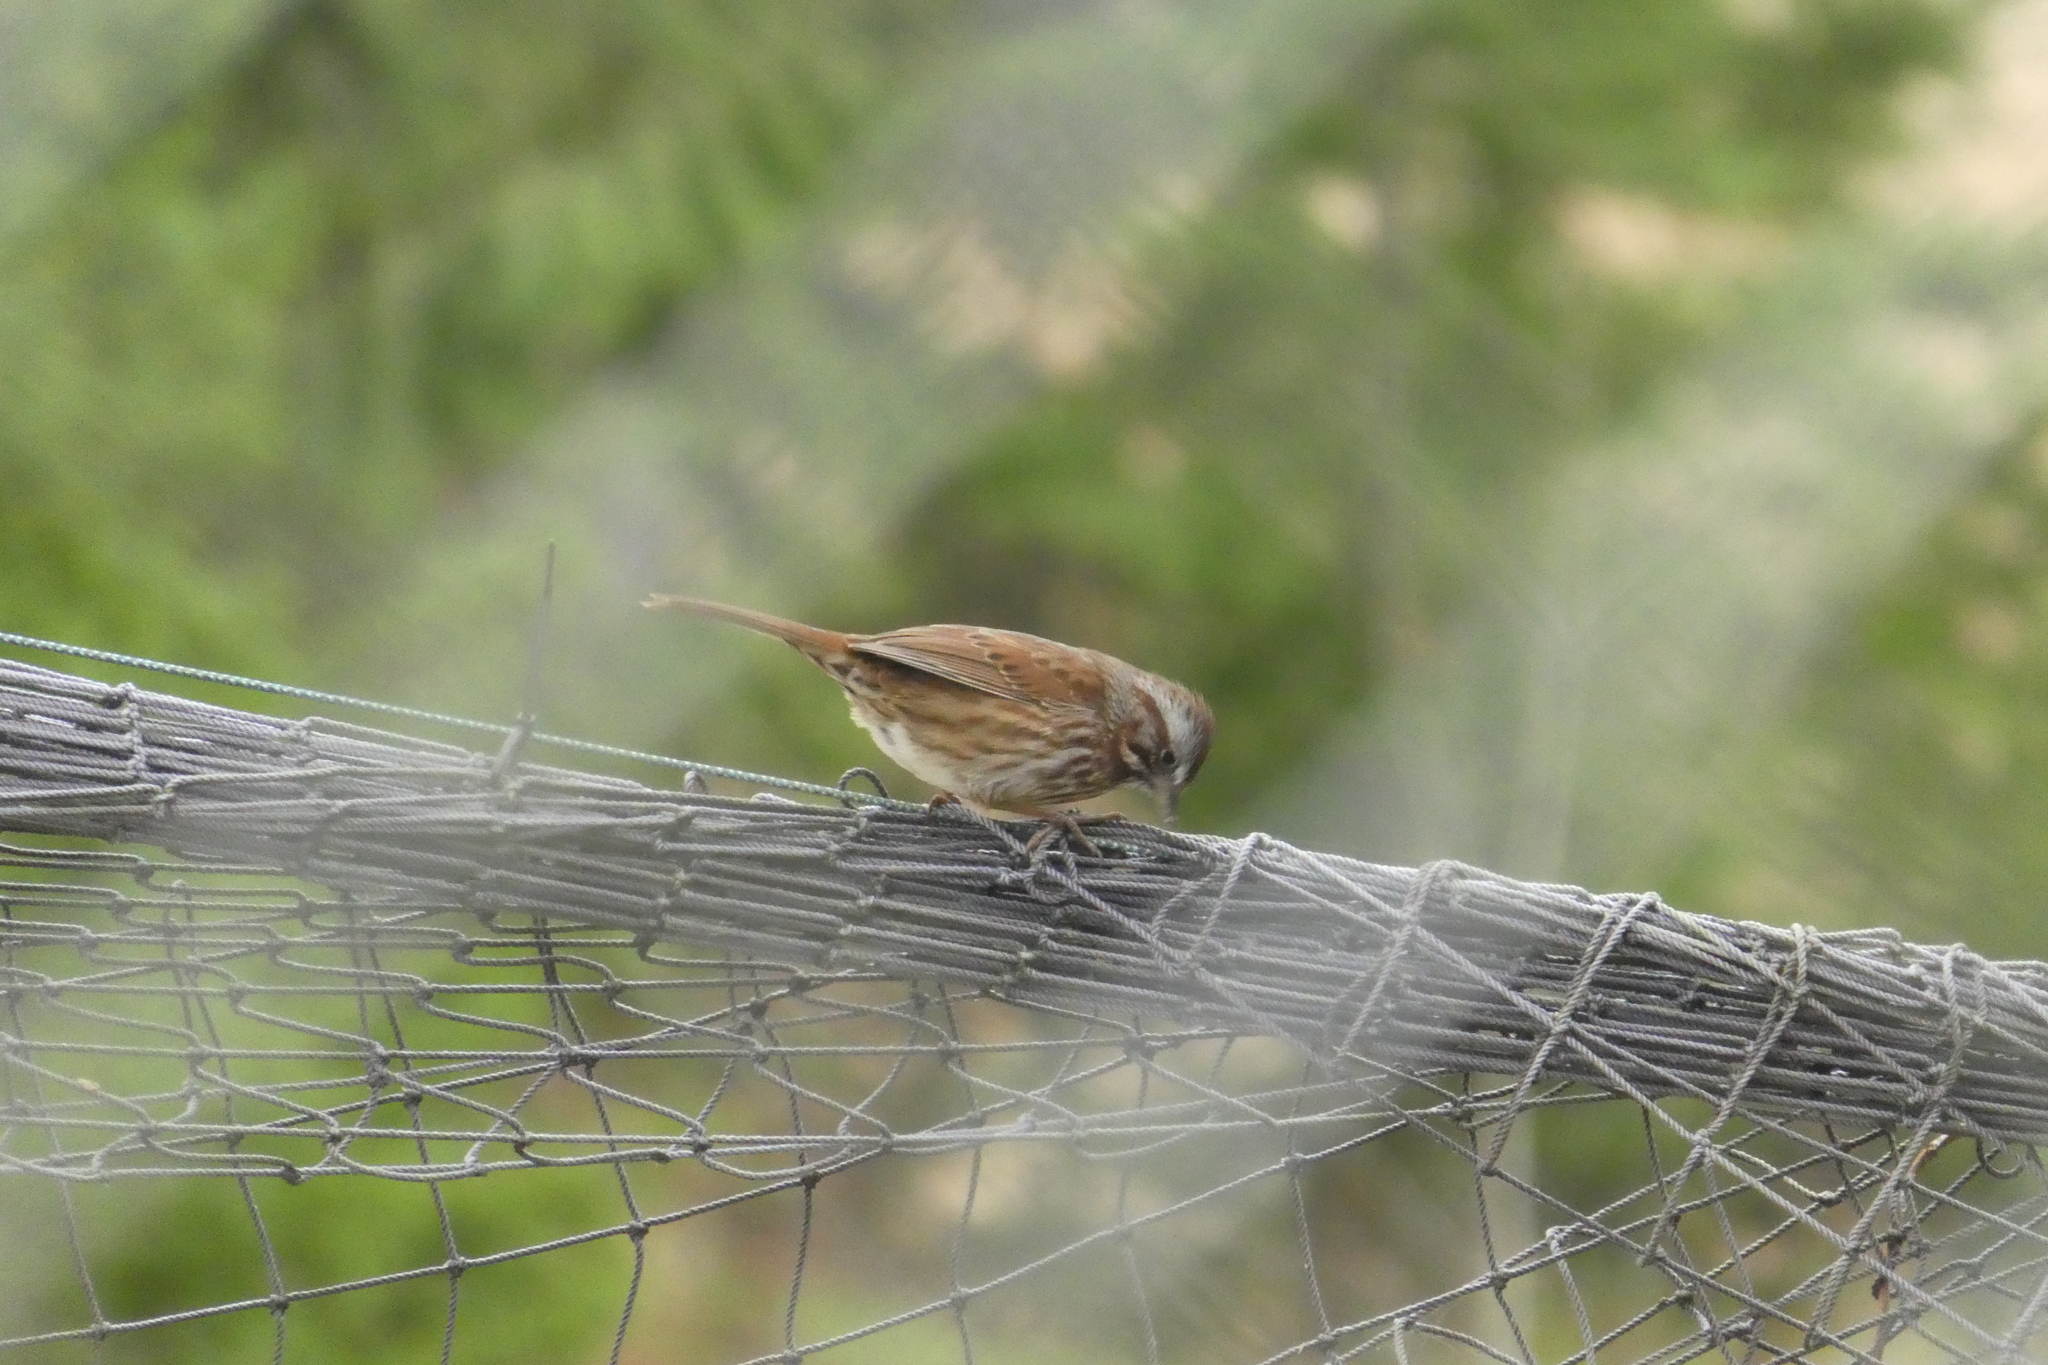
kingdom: Animalia
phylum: Chordata
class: Aves
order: Passeriformes
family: Passerellidae
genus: Melospiza
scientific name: Melospiza melodia
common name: Song sparrow
